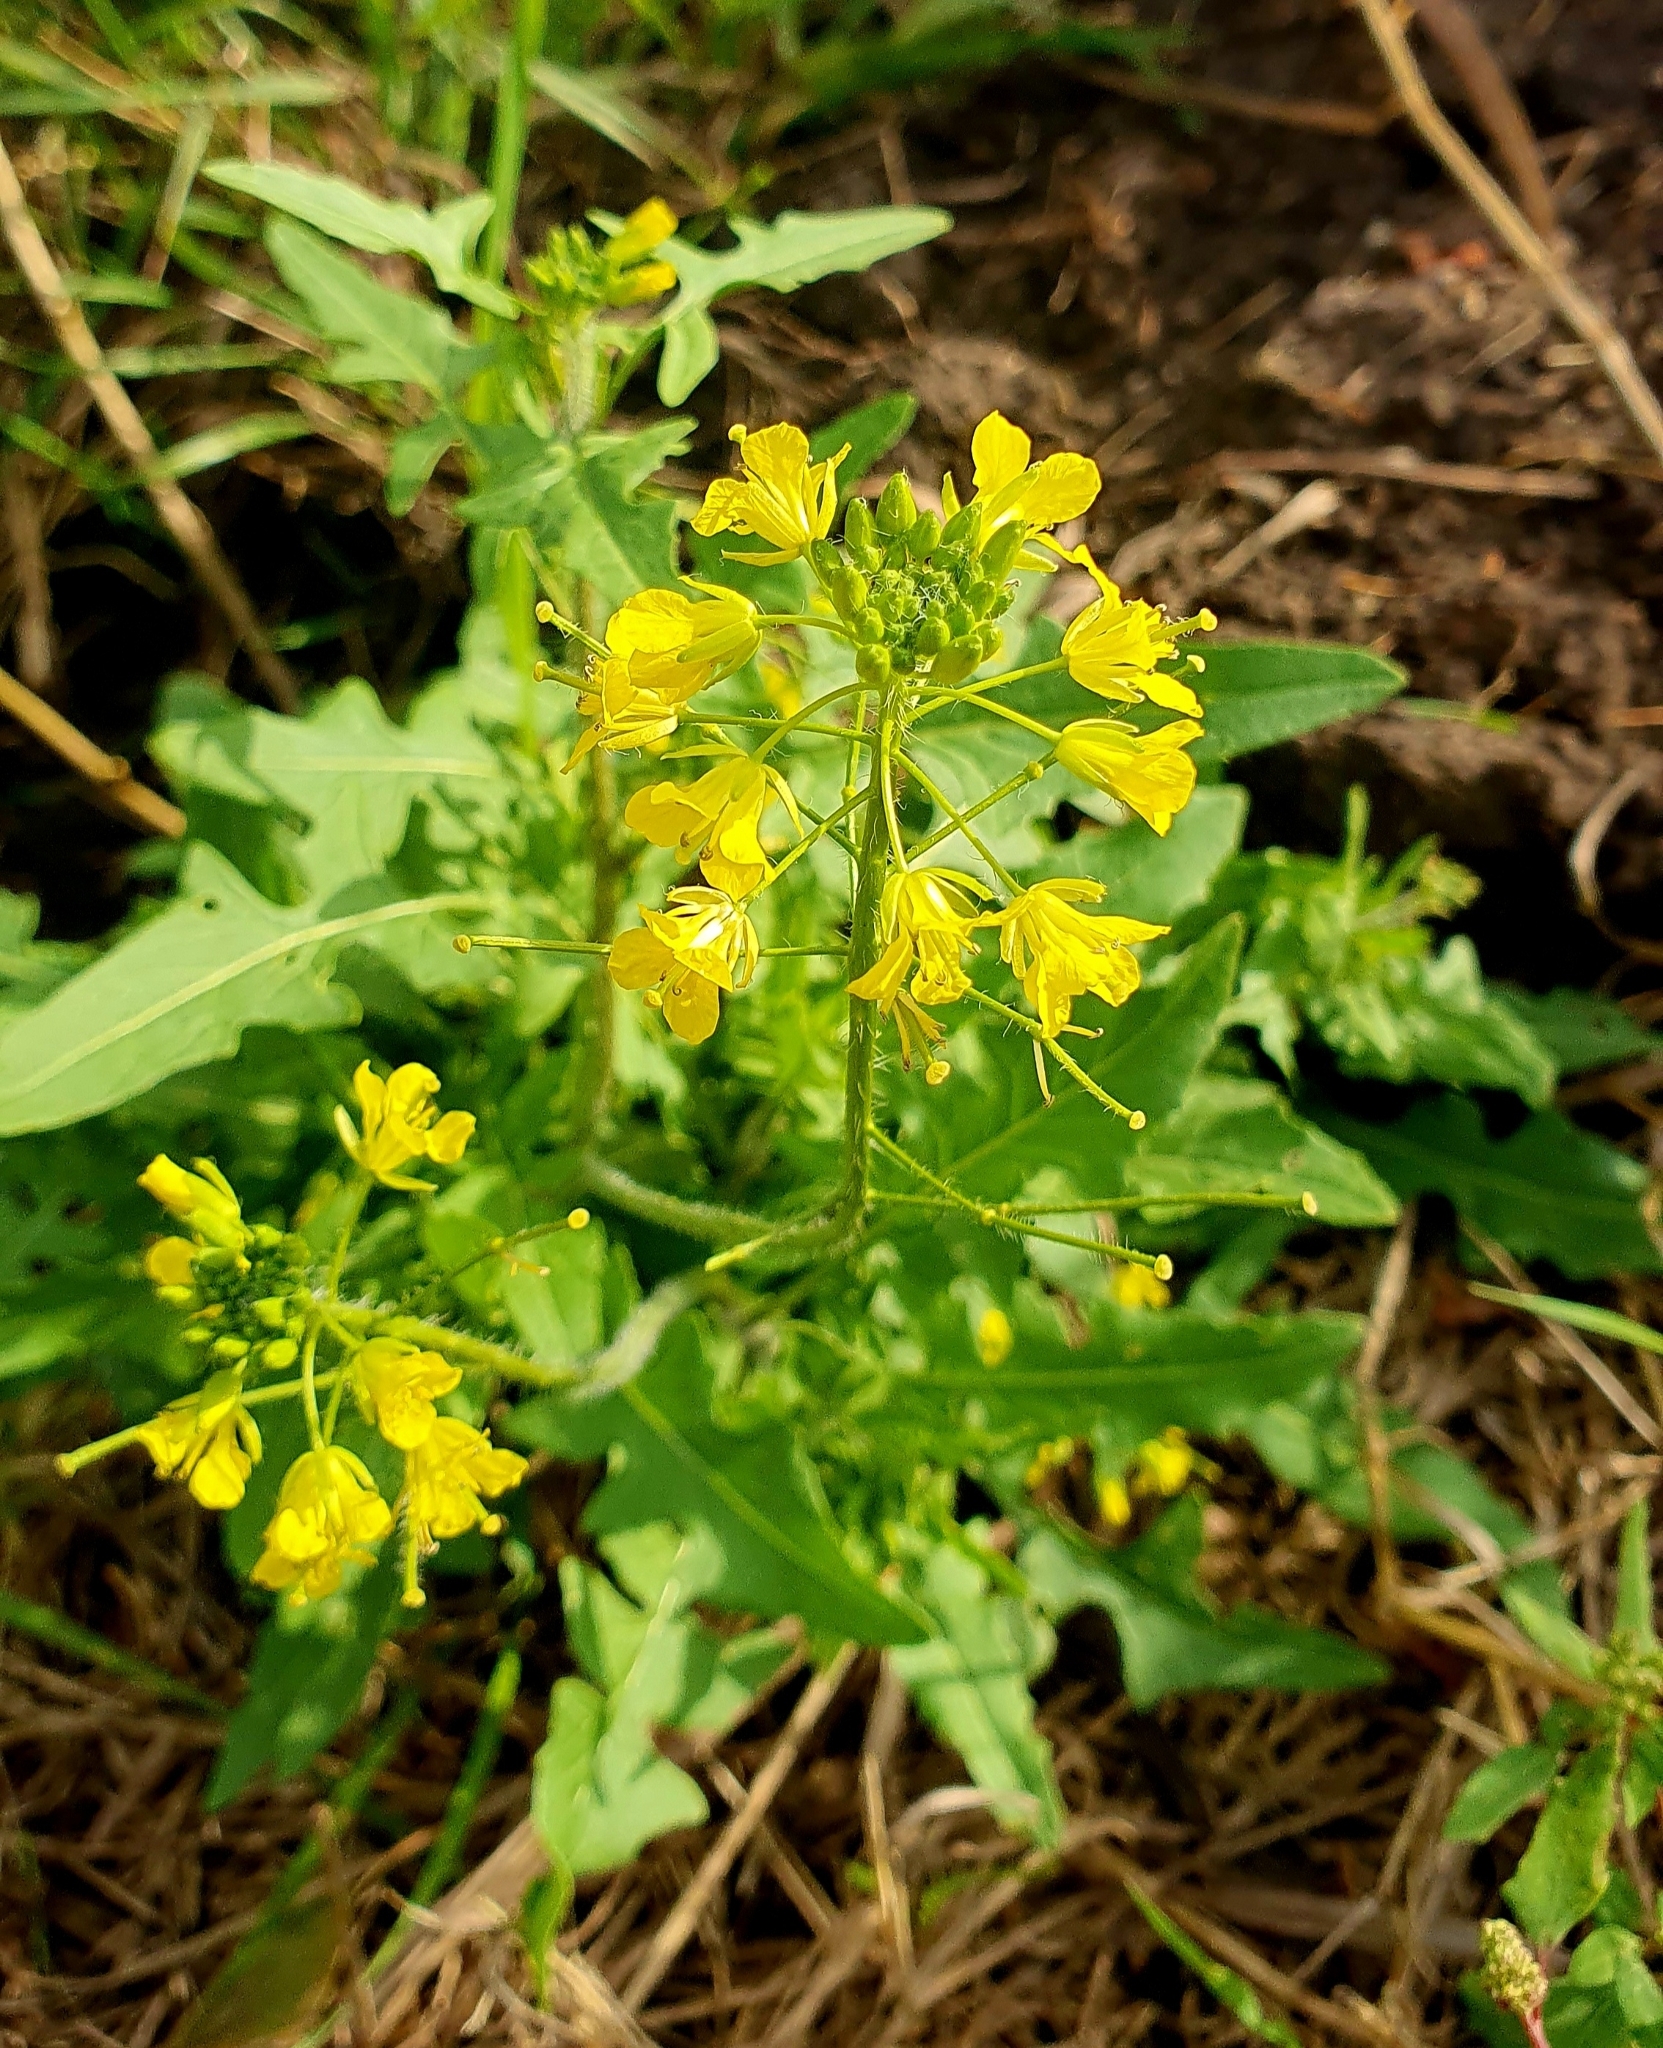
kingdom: Plantae
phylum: Tracheophyta
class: Magnoliopsida
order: Brassicales
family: Brassicaceae
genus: Sisymbrium
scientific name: Sisymbrium loeselii
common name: False london-rocket
